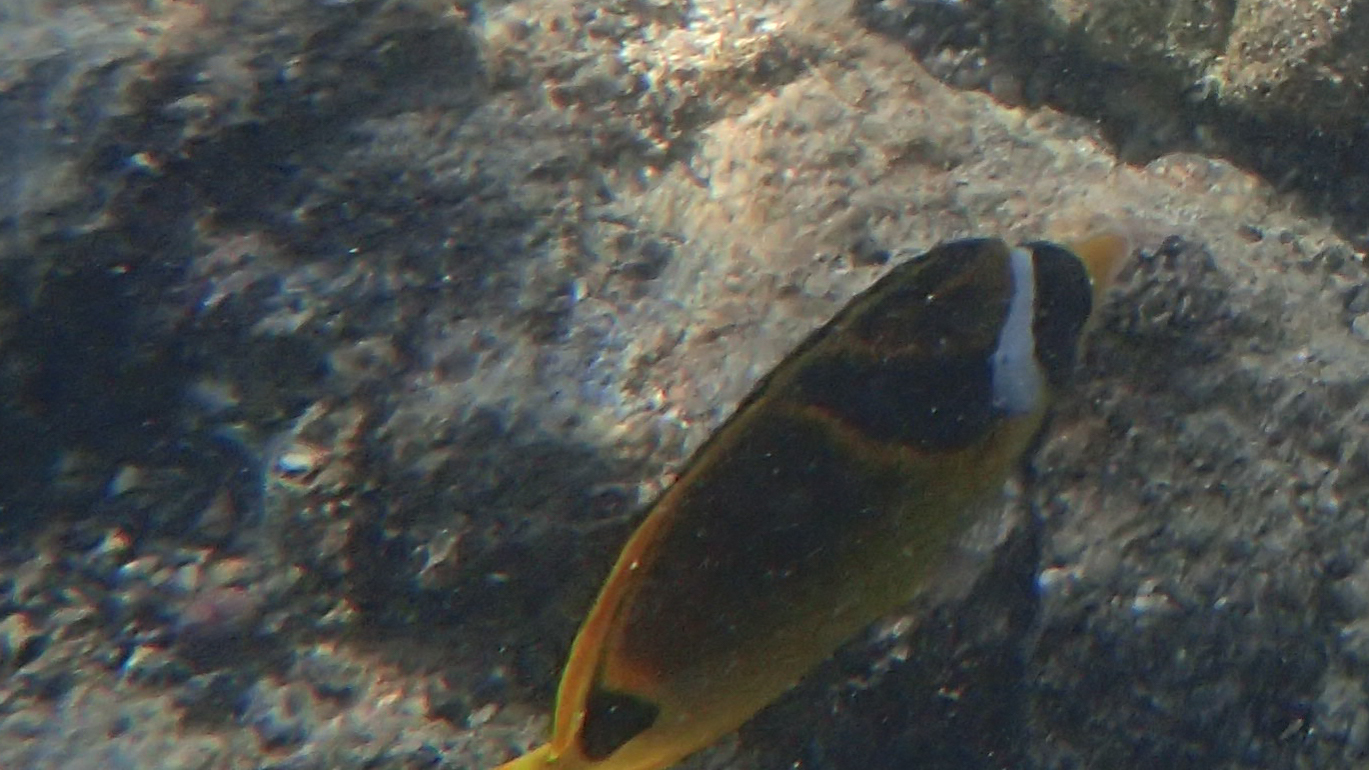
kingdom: Animalia
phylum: Chordata
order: Perciformes
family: Chaetodontidae
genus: Chaetodon
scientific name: Chaetodon lunula
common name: Raccoon butterflyfish
